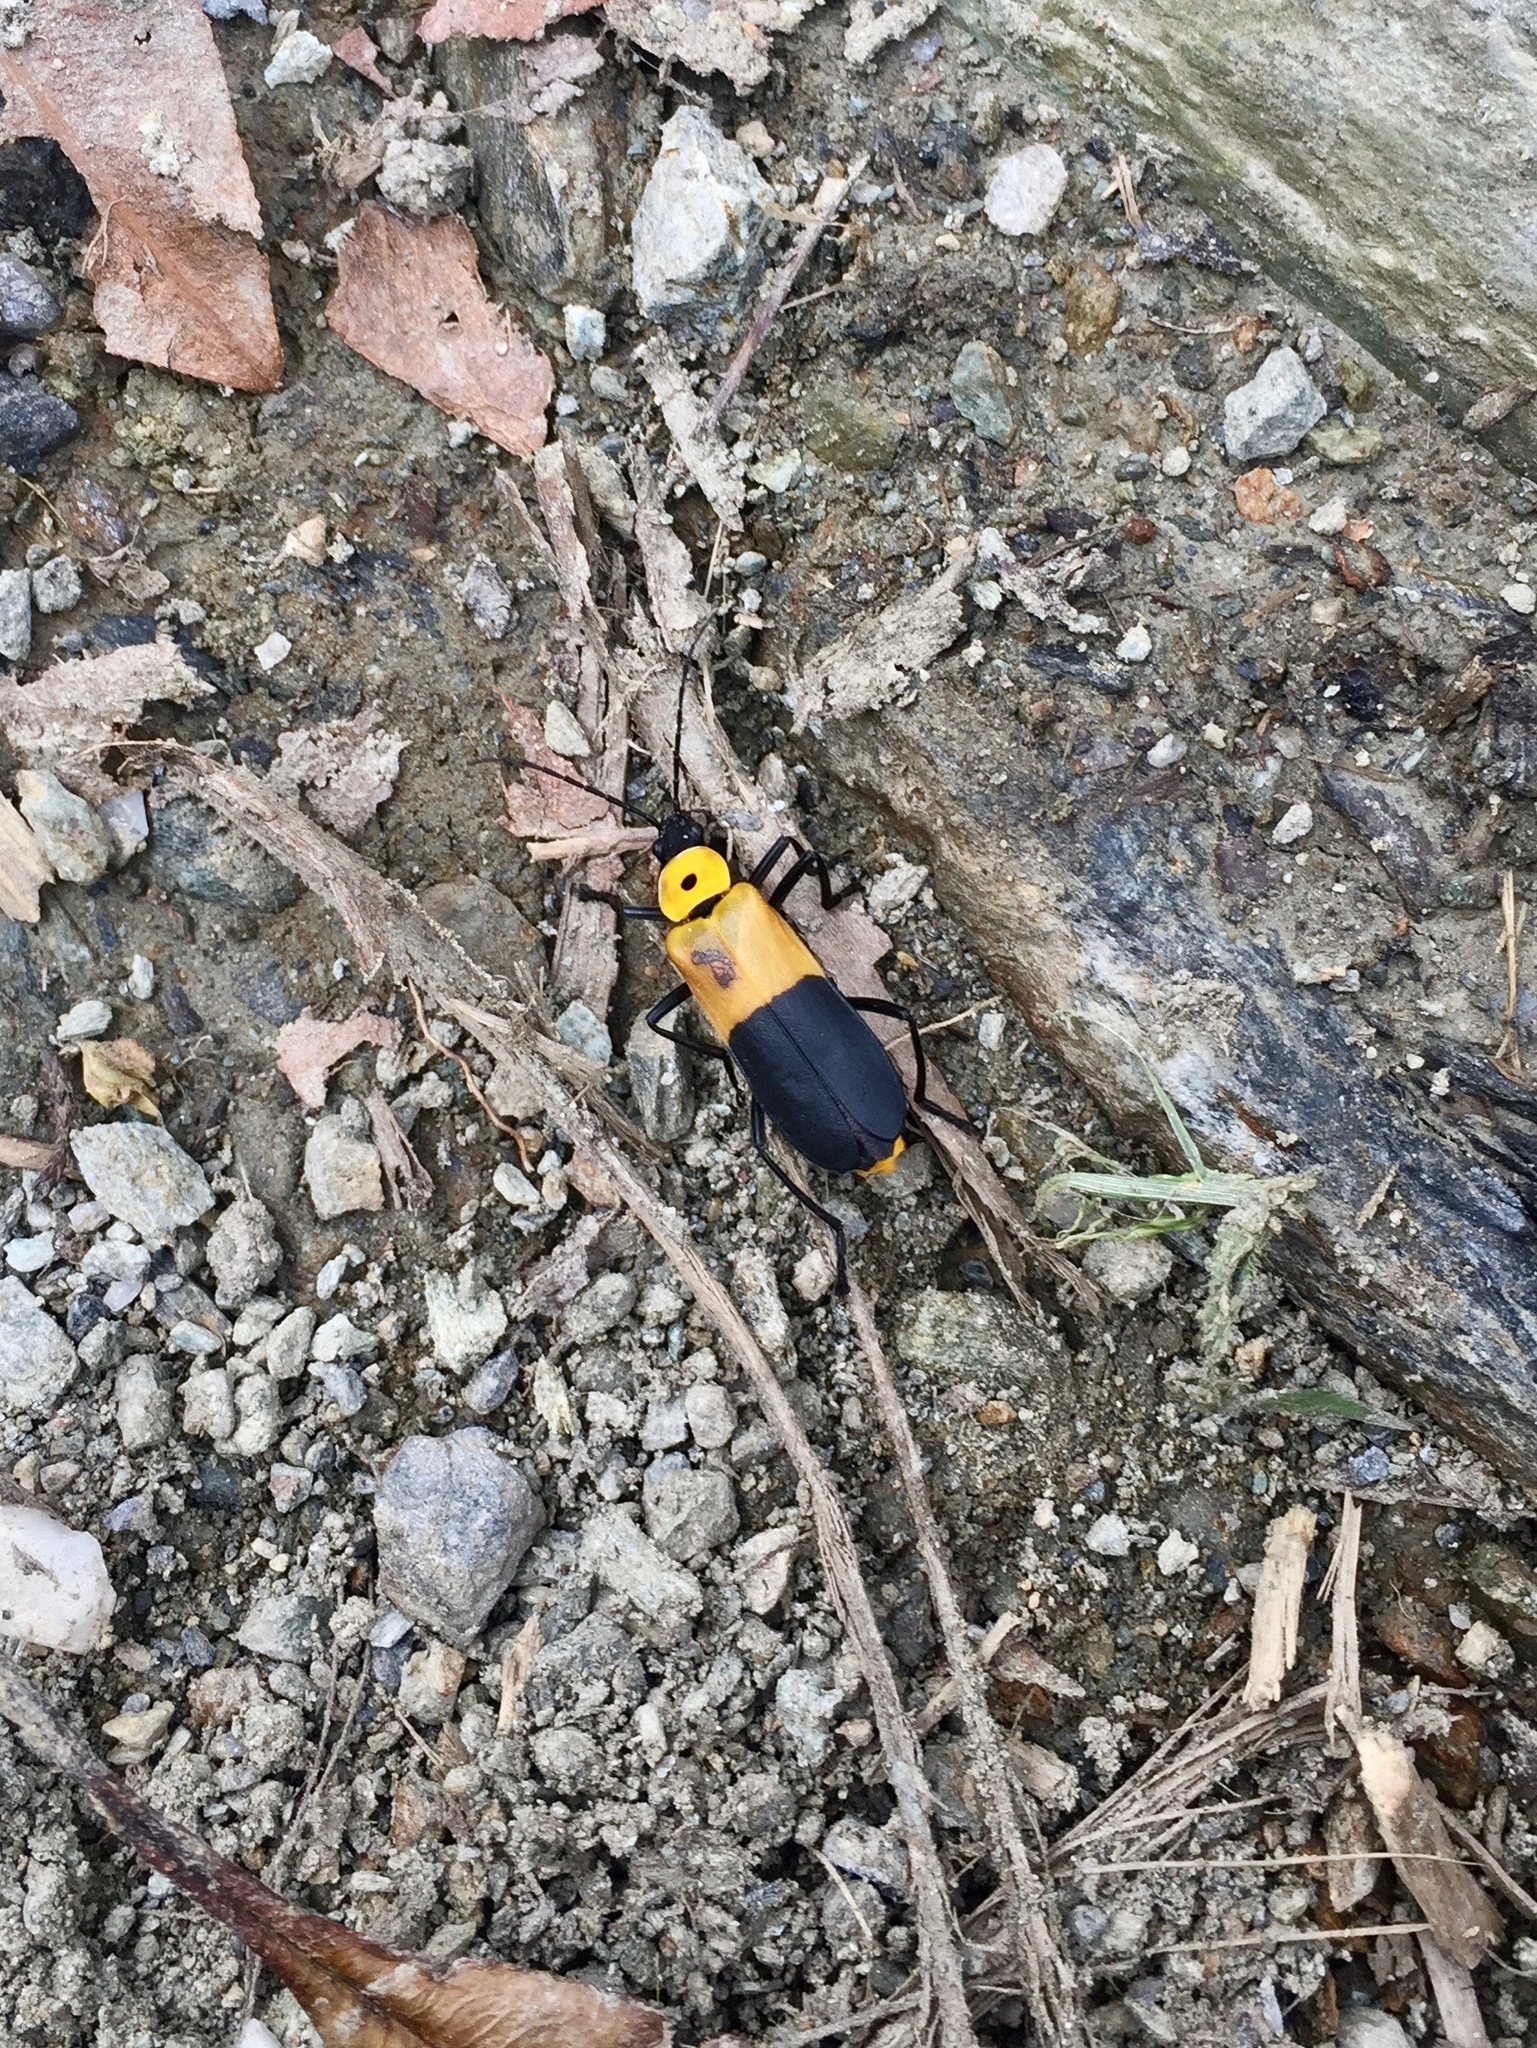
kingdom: Animalia
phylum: Arthropoda
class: Insecta
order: Coleoptera
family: Cantharidae
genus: Chauliognathus
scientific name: Chauliognathus
